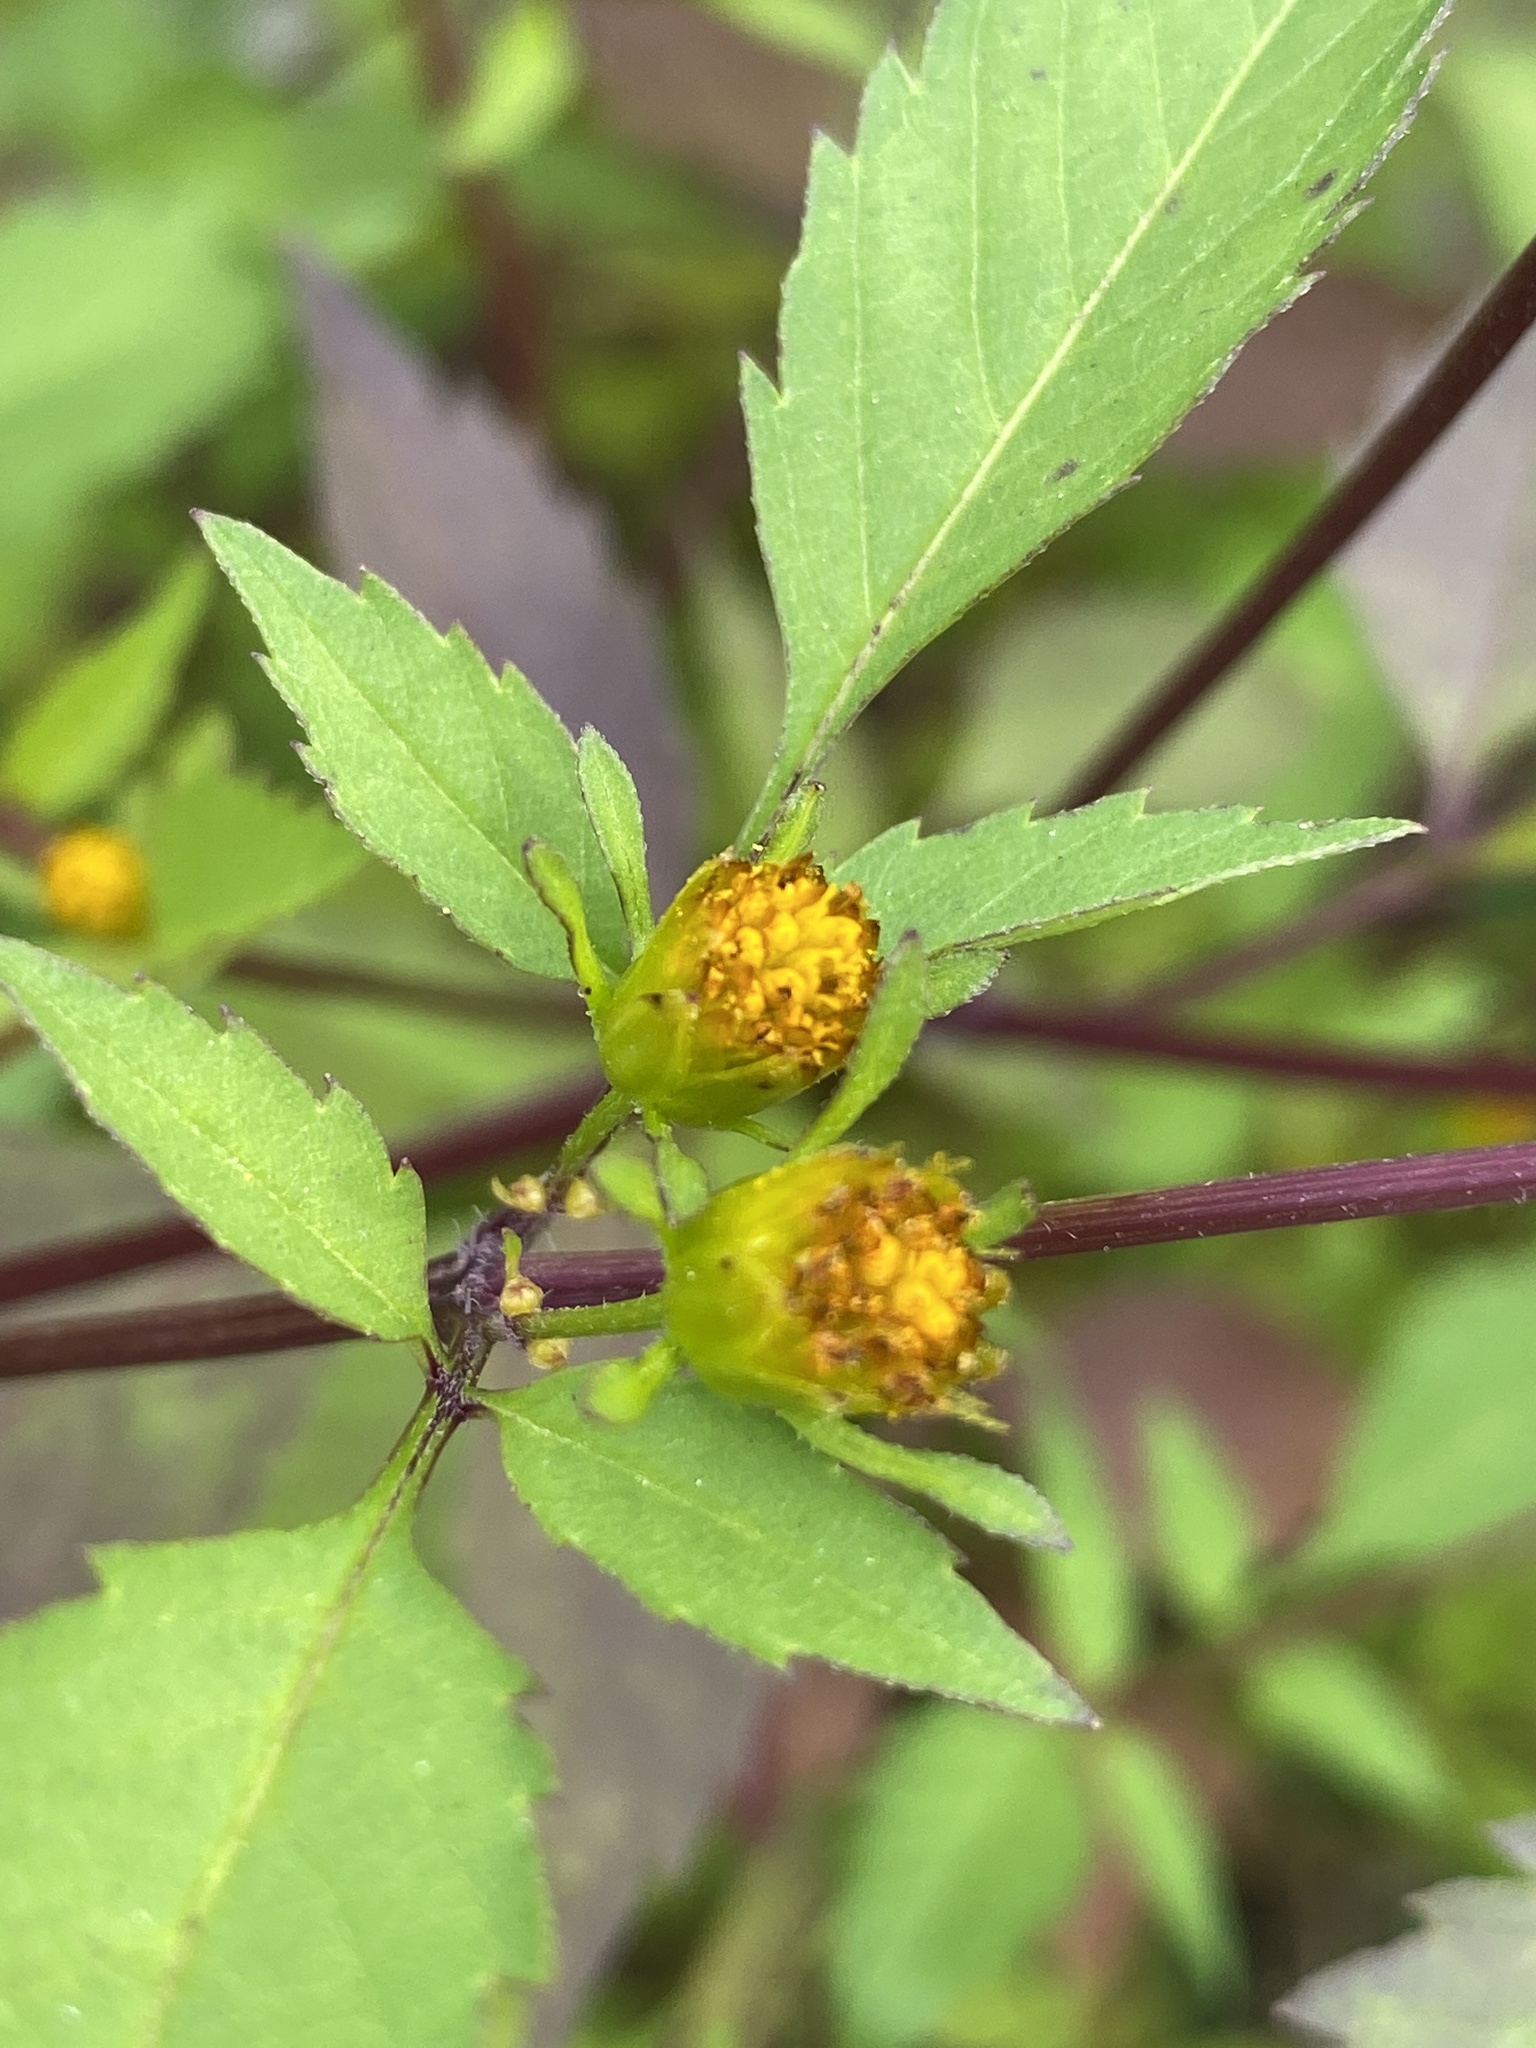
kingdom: Plantae
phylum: Tracheophyta
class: Magnoliopsida
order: Asterales
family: Asteraceae
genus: Bidens
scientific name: Bidens frondosa
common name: Beggarticks
